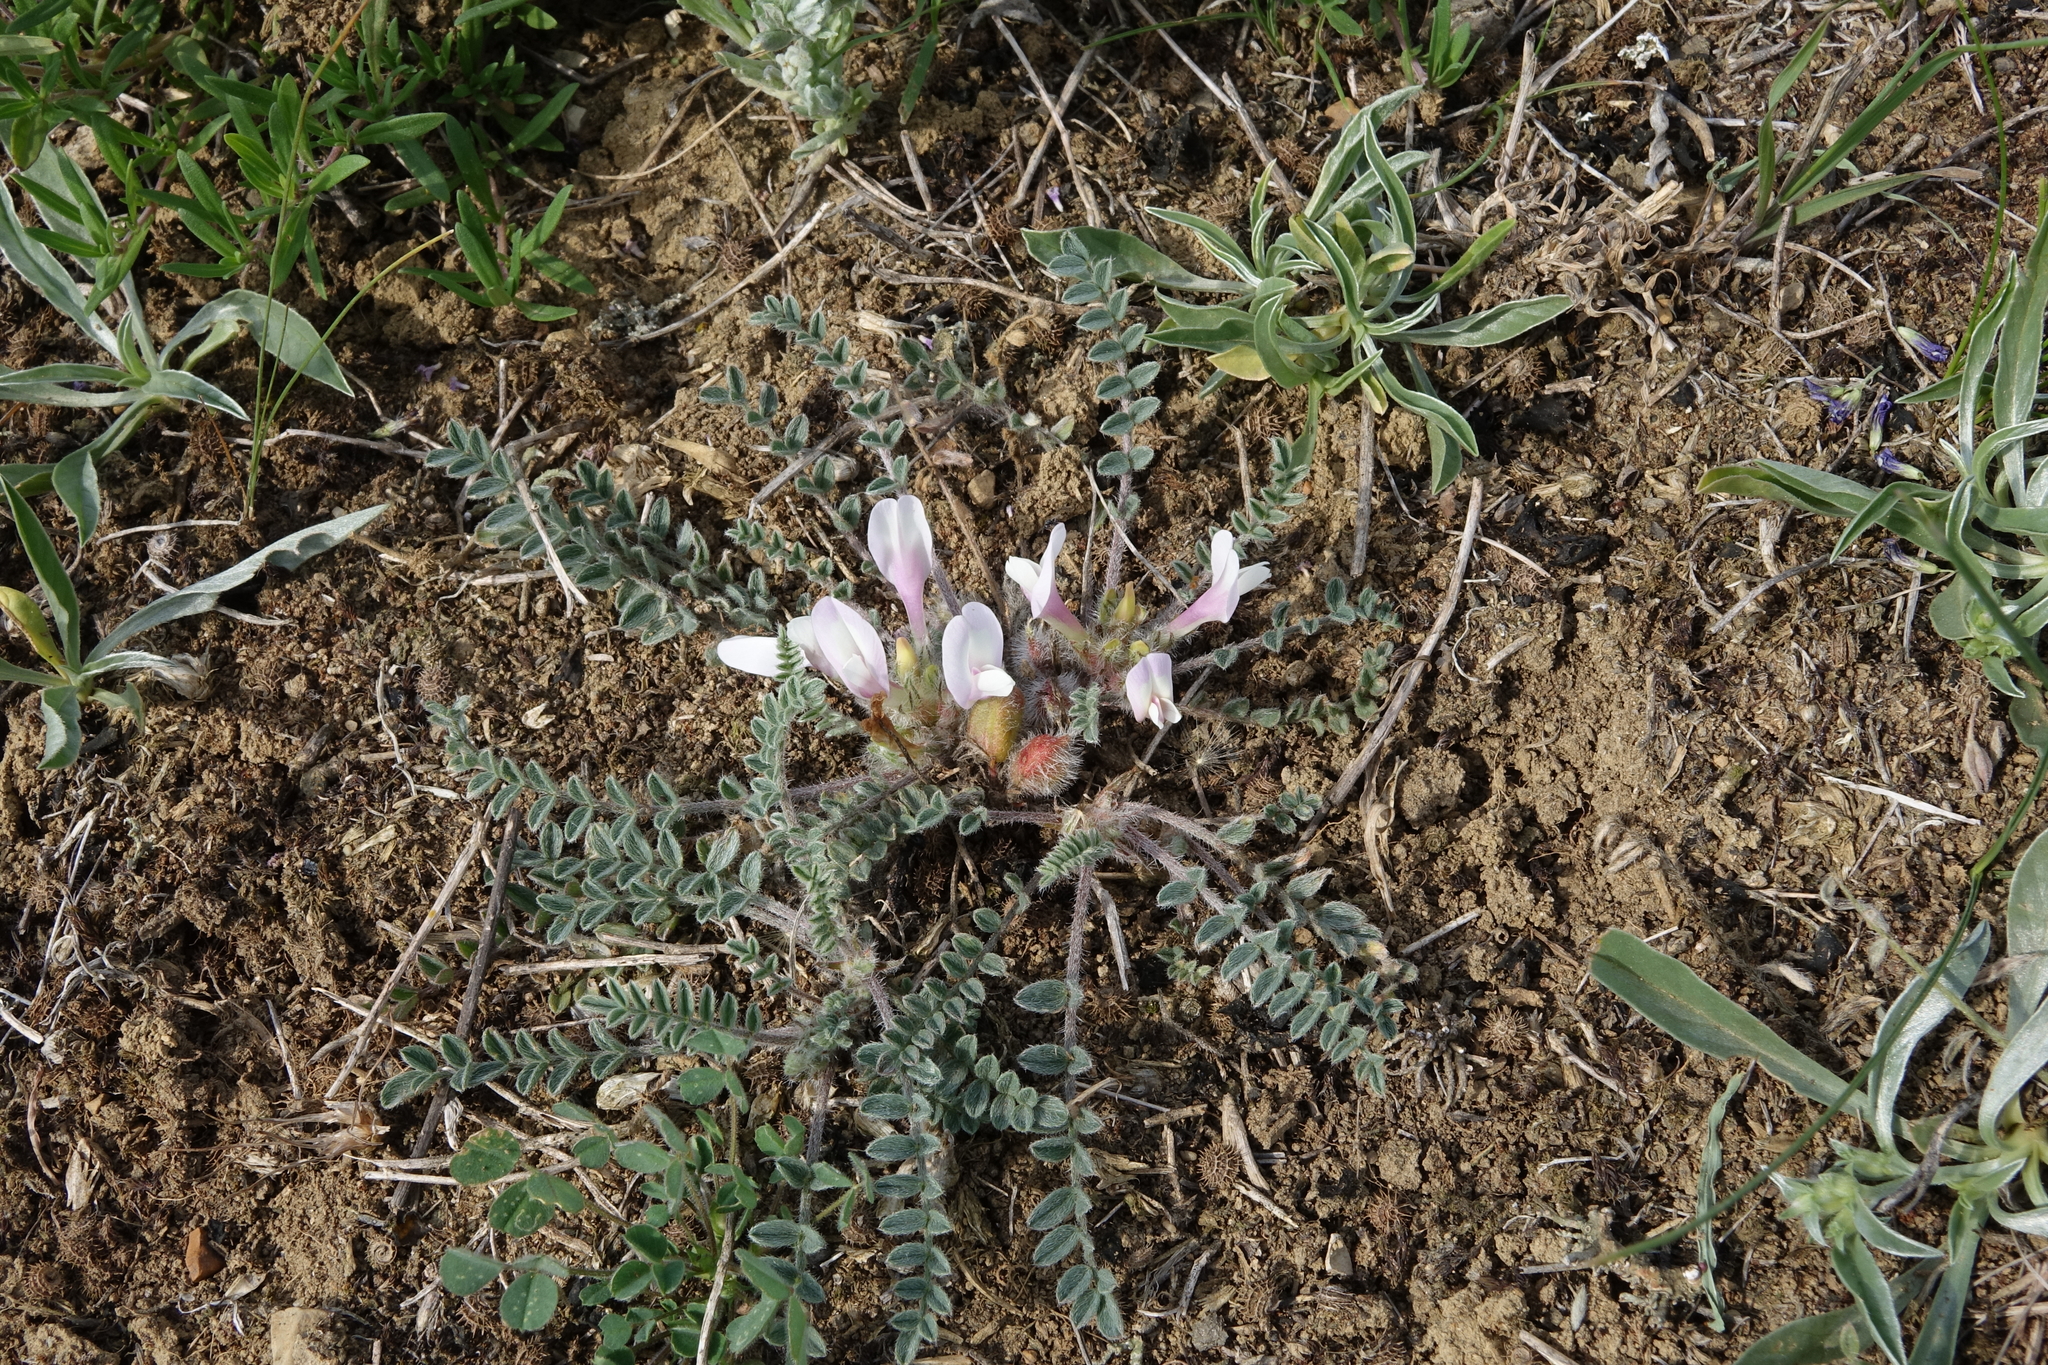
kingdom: Plantae
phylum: Tracheophyta
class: Magnoliopsida
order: Fabales
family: Fabaceae
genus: Astragalus
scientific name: Astragalus testiculatus
